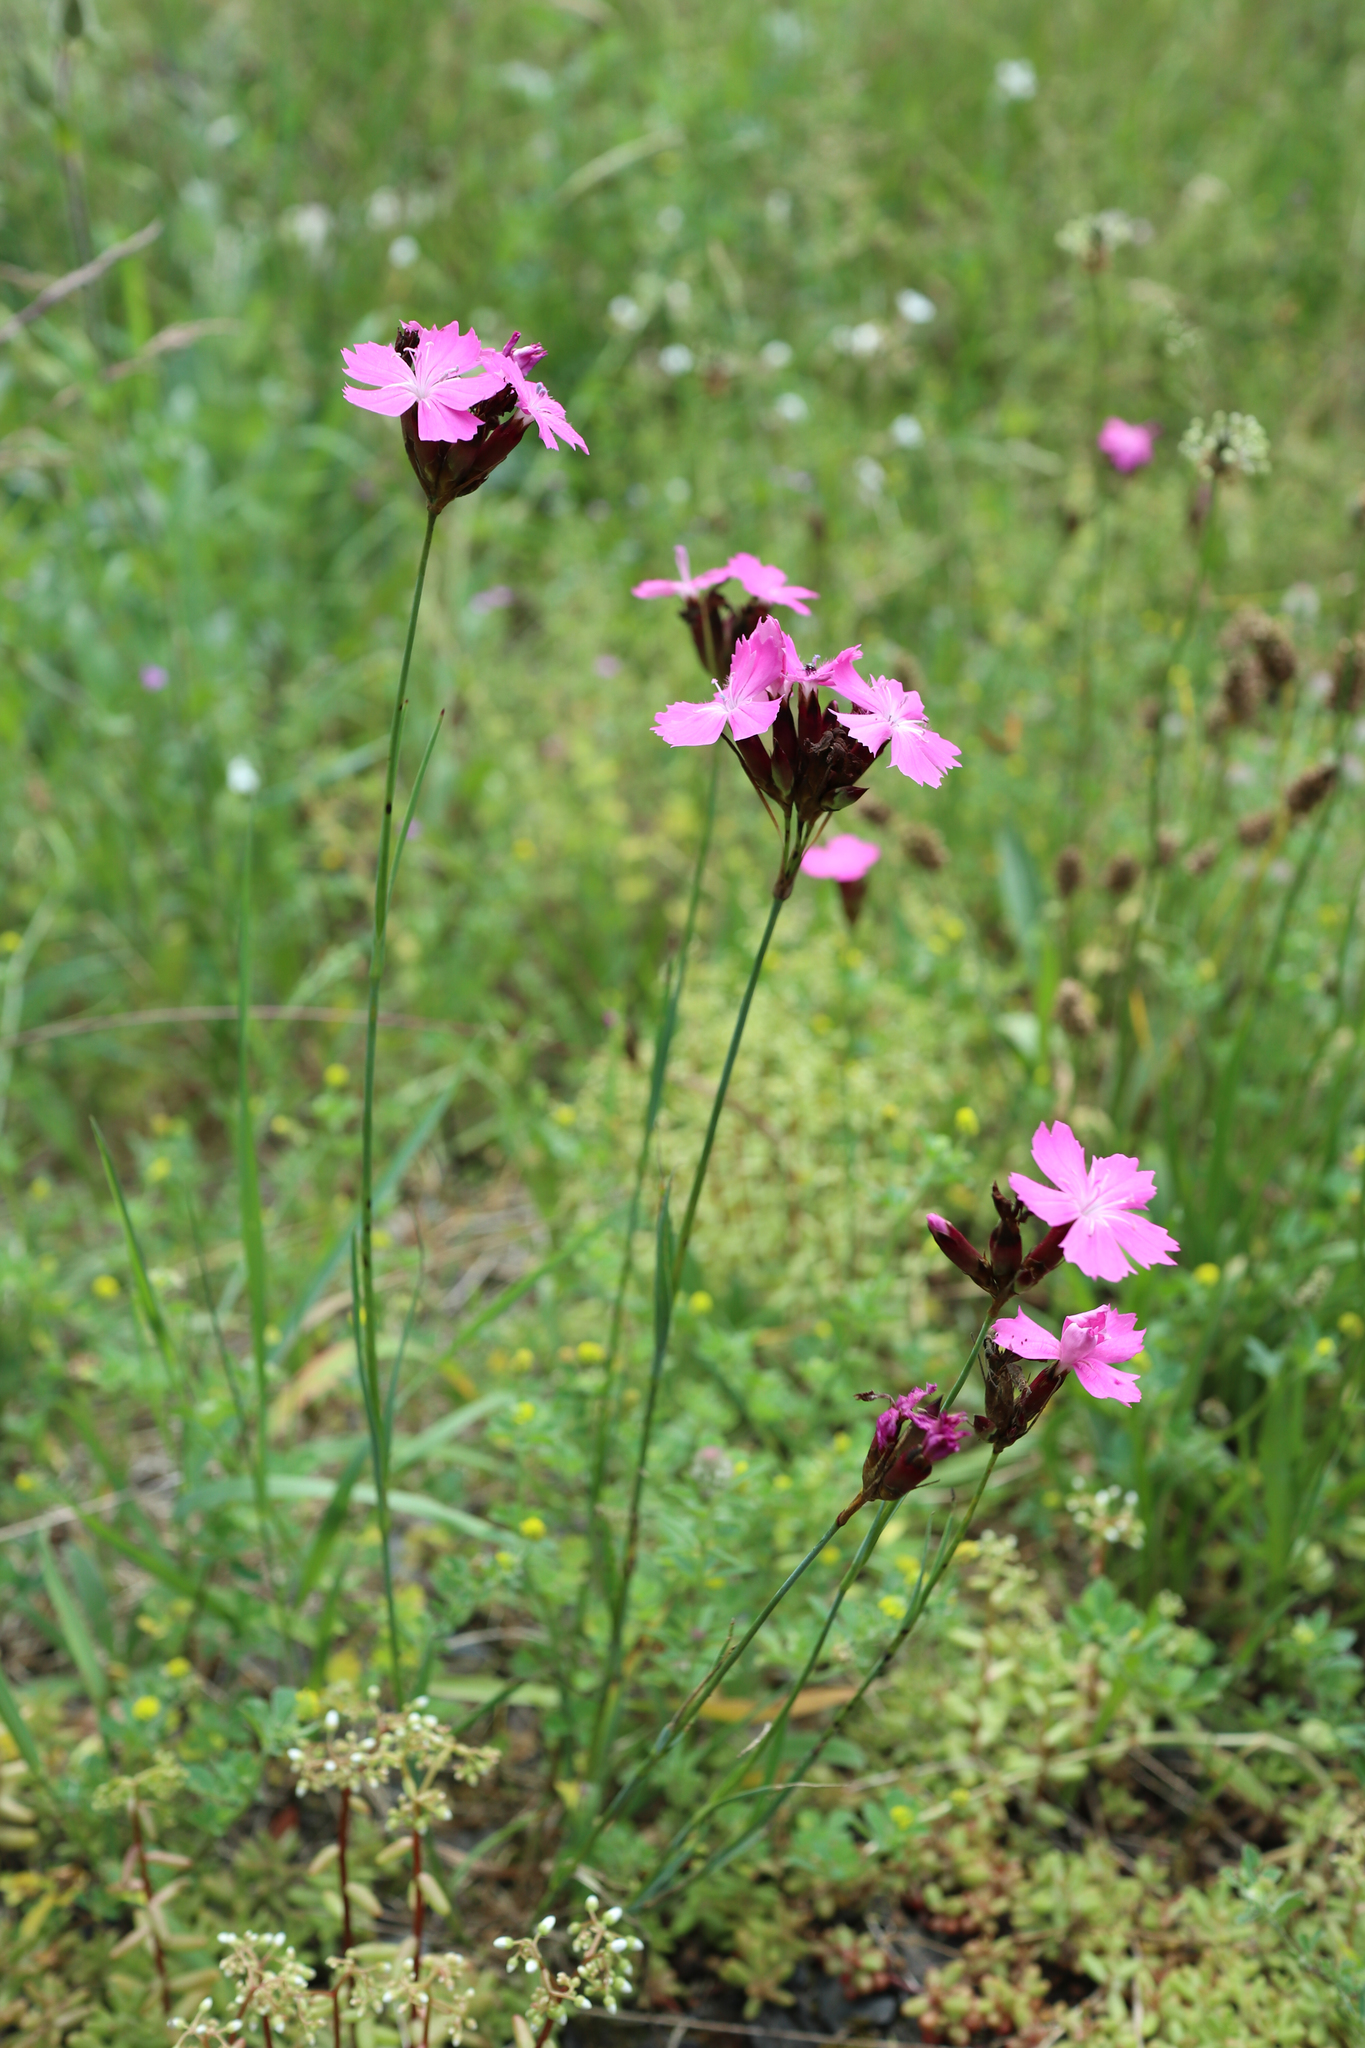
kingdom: Plantae
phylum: Tracheophyta
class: Magnoliopsida
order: Caryophyllales
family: Caryophyllaceae
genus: Dianthus
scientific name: Dianthus carthusianorum
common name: Carthusian pink
